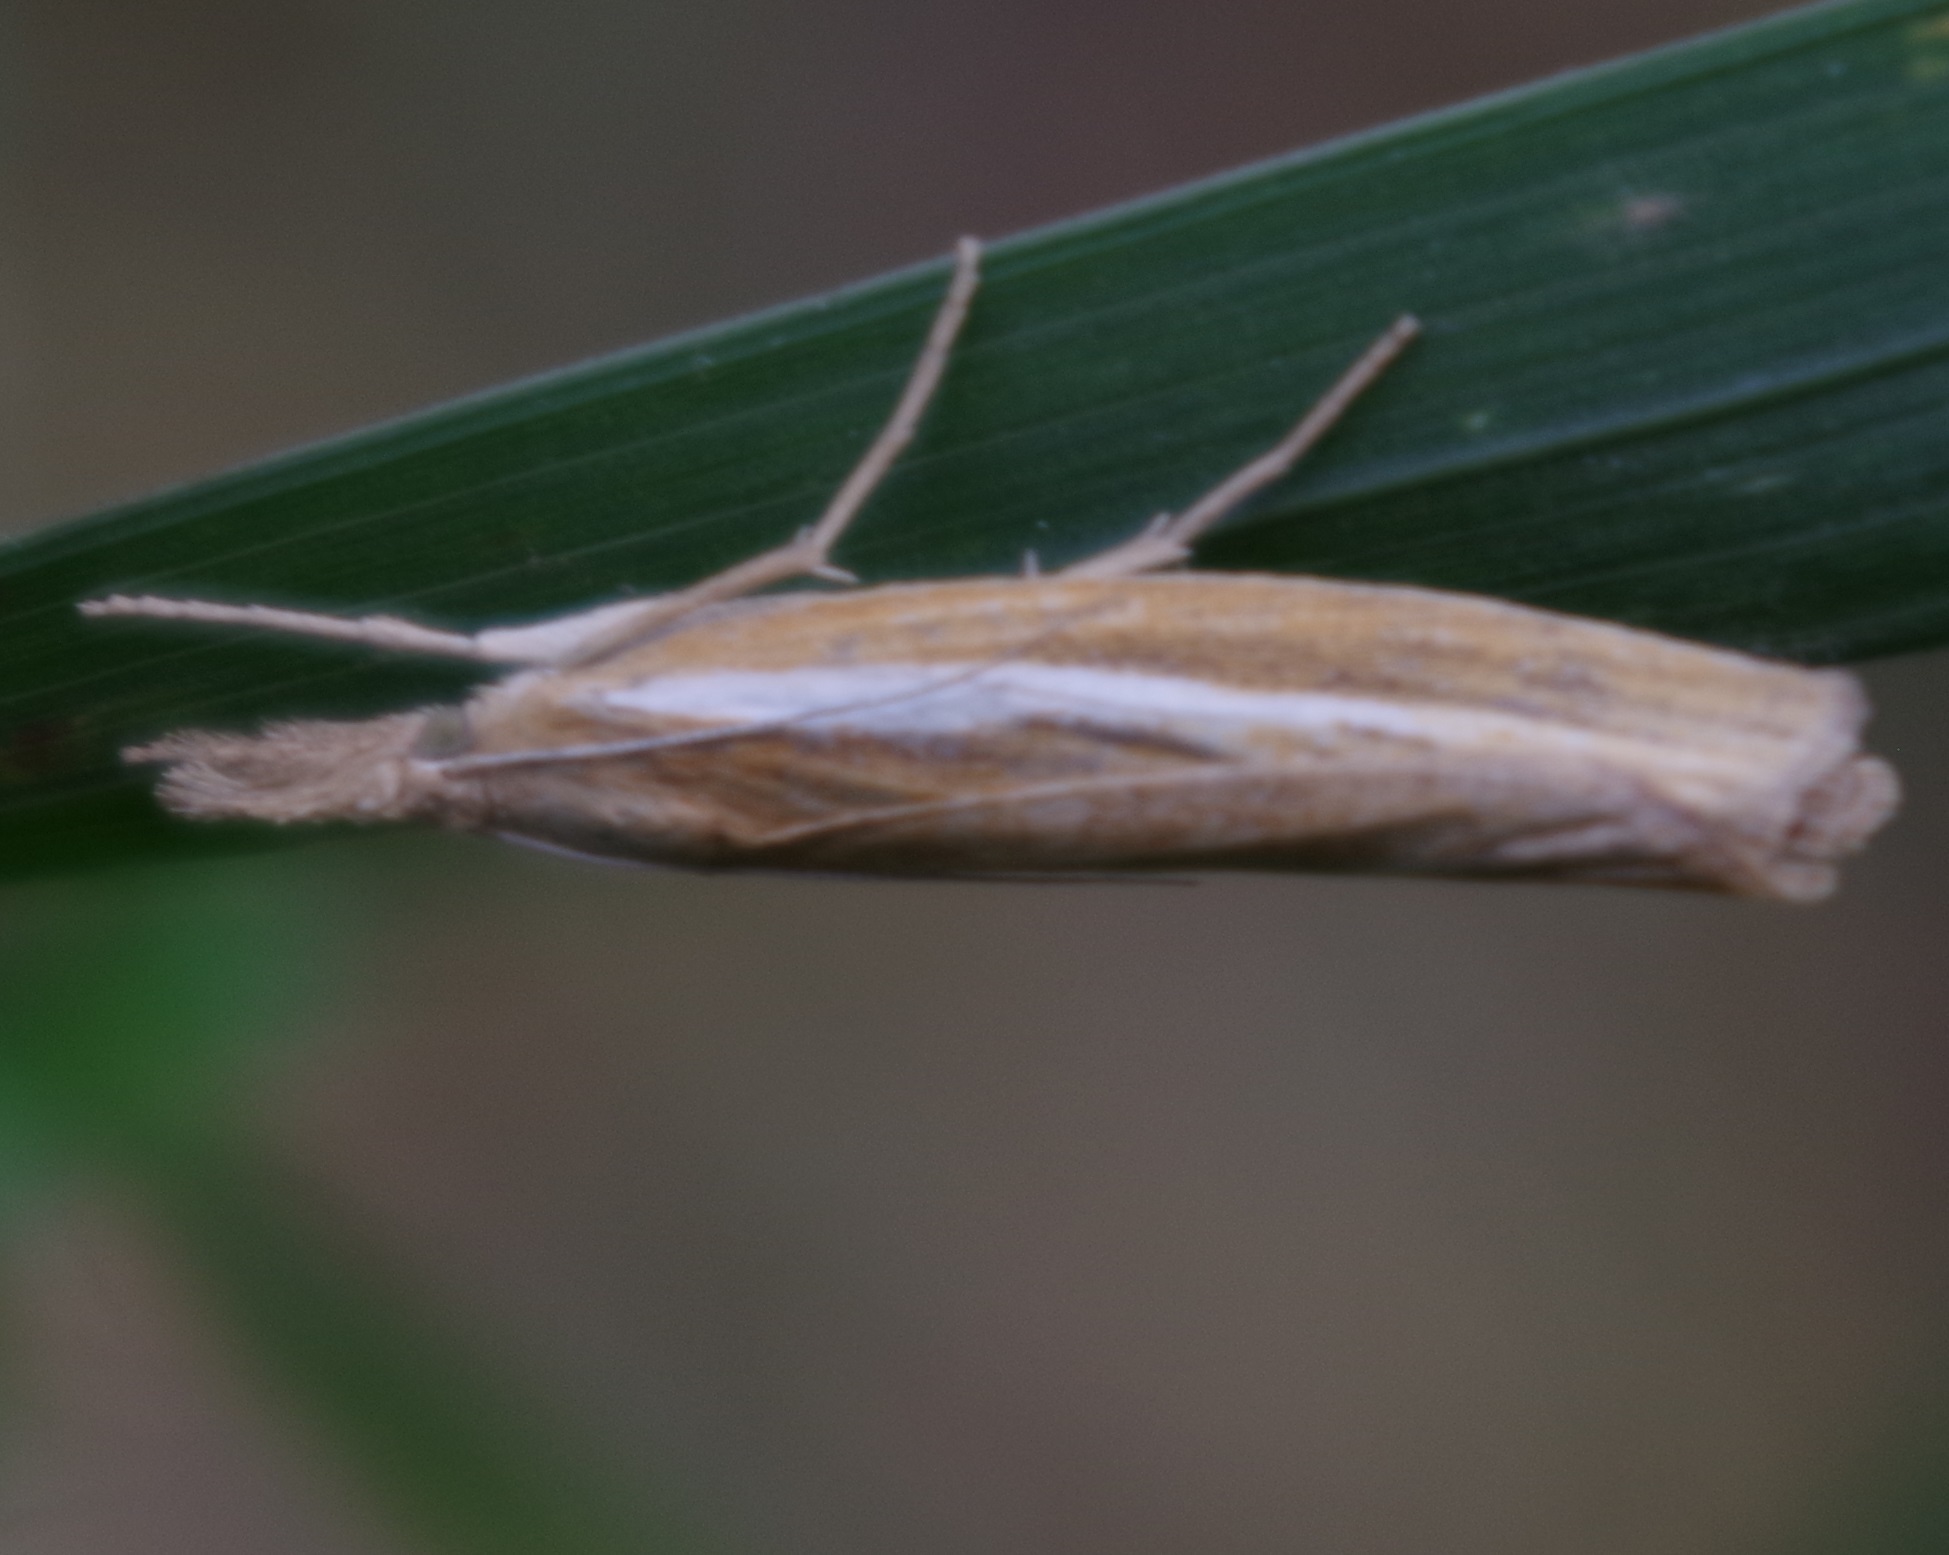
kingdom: Animalia
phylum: Arthropoda
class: Insecta
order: Lepidoptera
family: Crambidae
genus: Agriphila
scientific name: Agriphila tristellus
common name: Common grass-veneer
